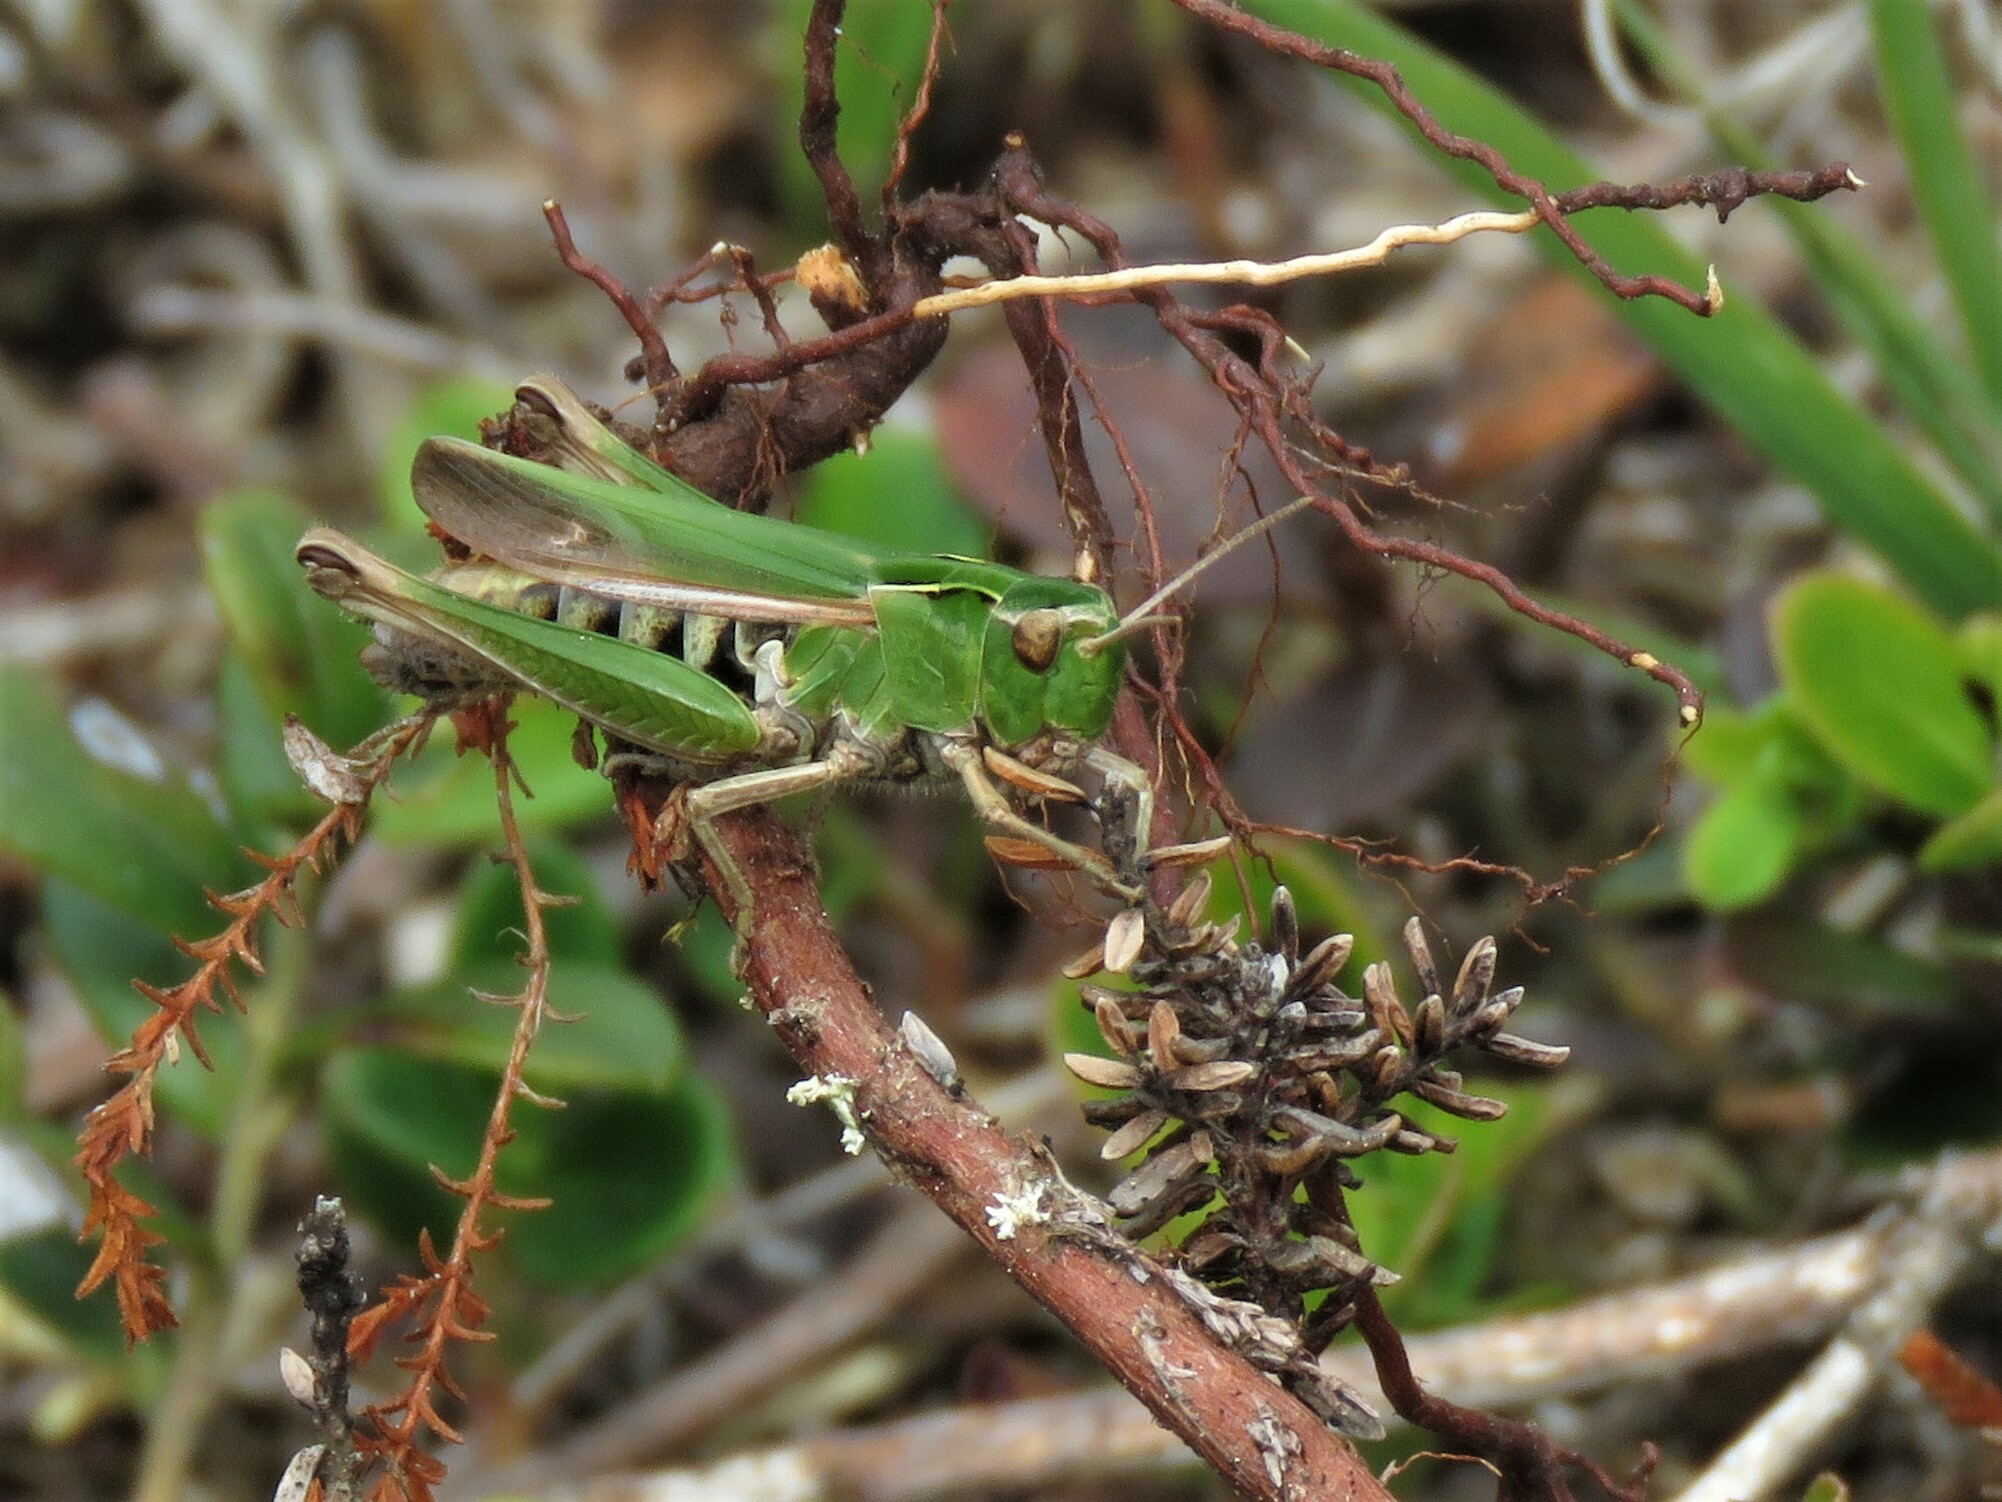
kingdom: Animalia
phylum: Arthropoda
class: Insecta
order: Orthoptera
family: Acrididae
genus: Omocestus
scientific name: Omocestus viridulus
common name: Common green grasshopper
